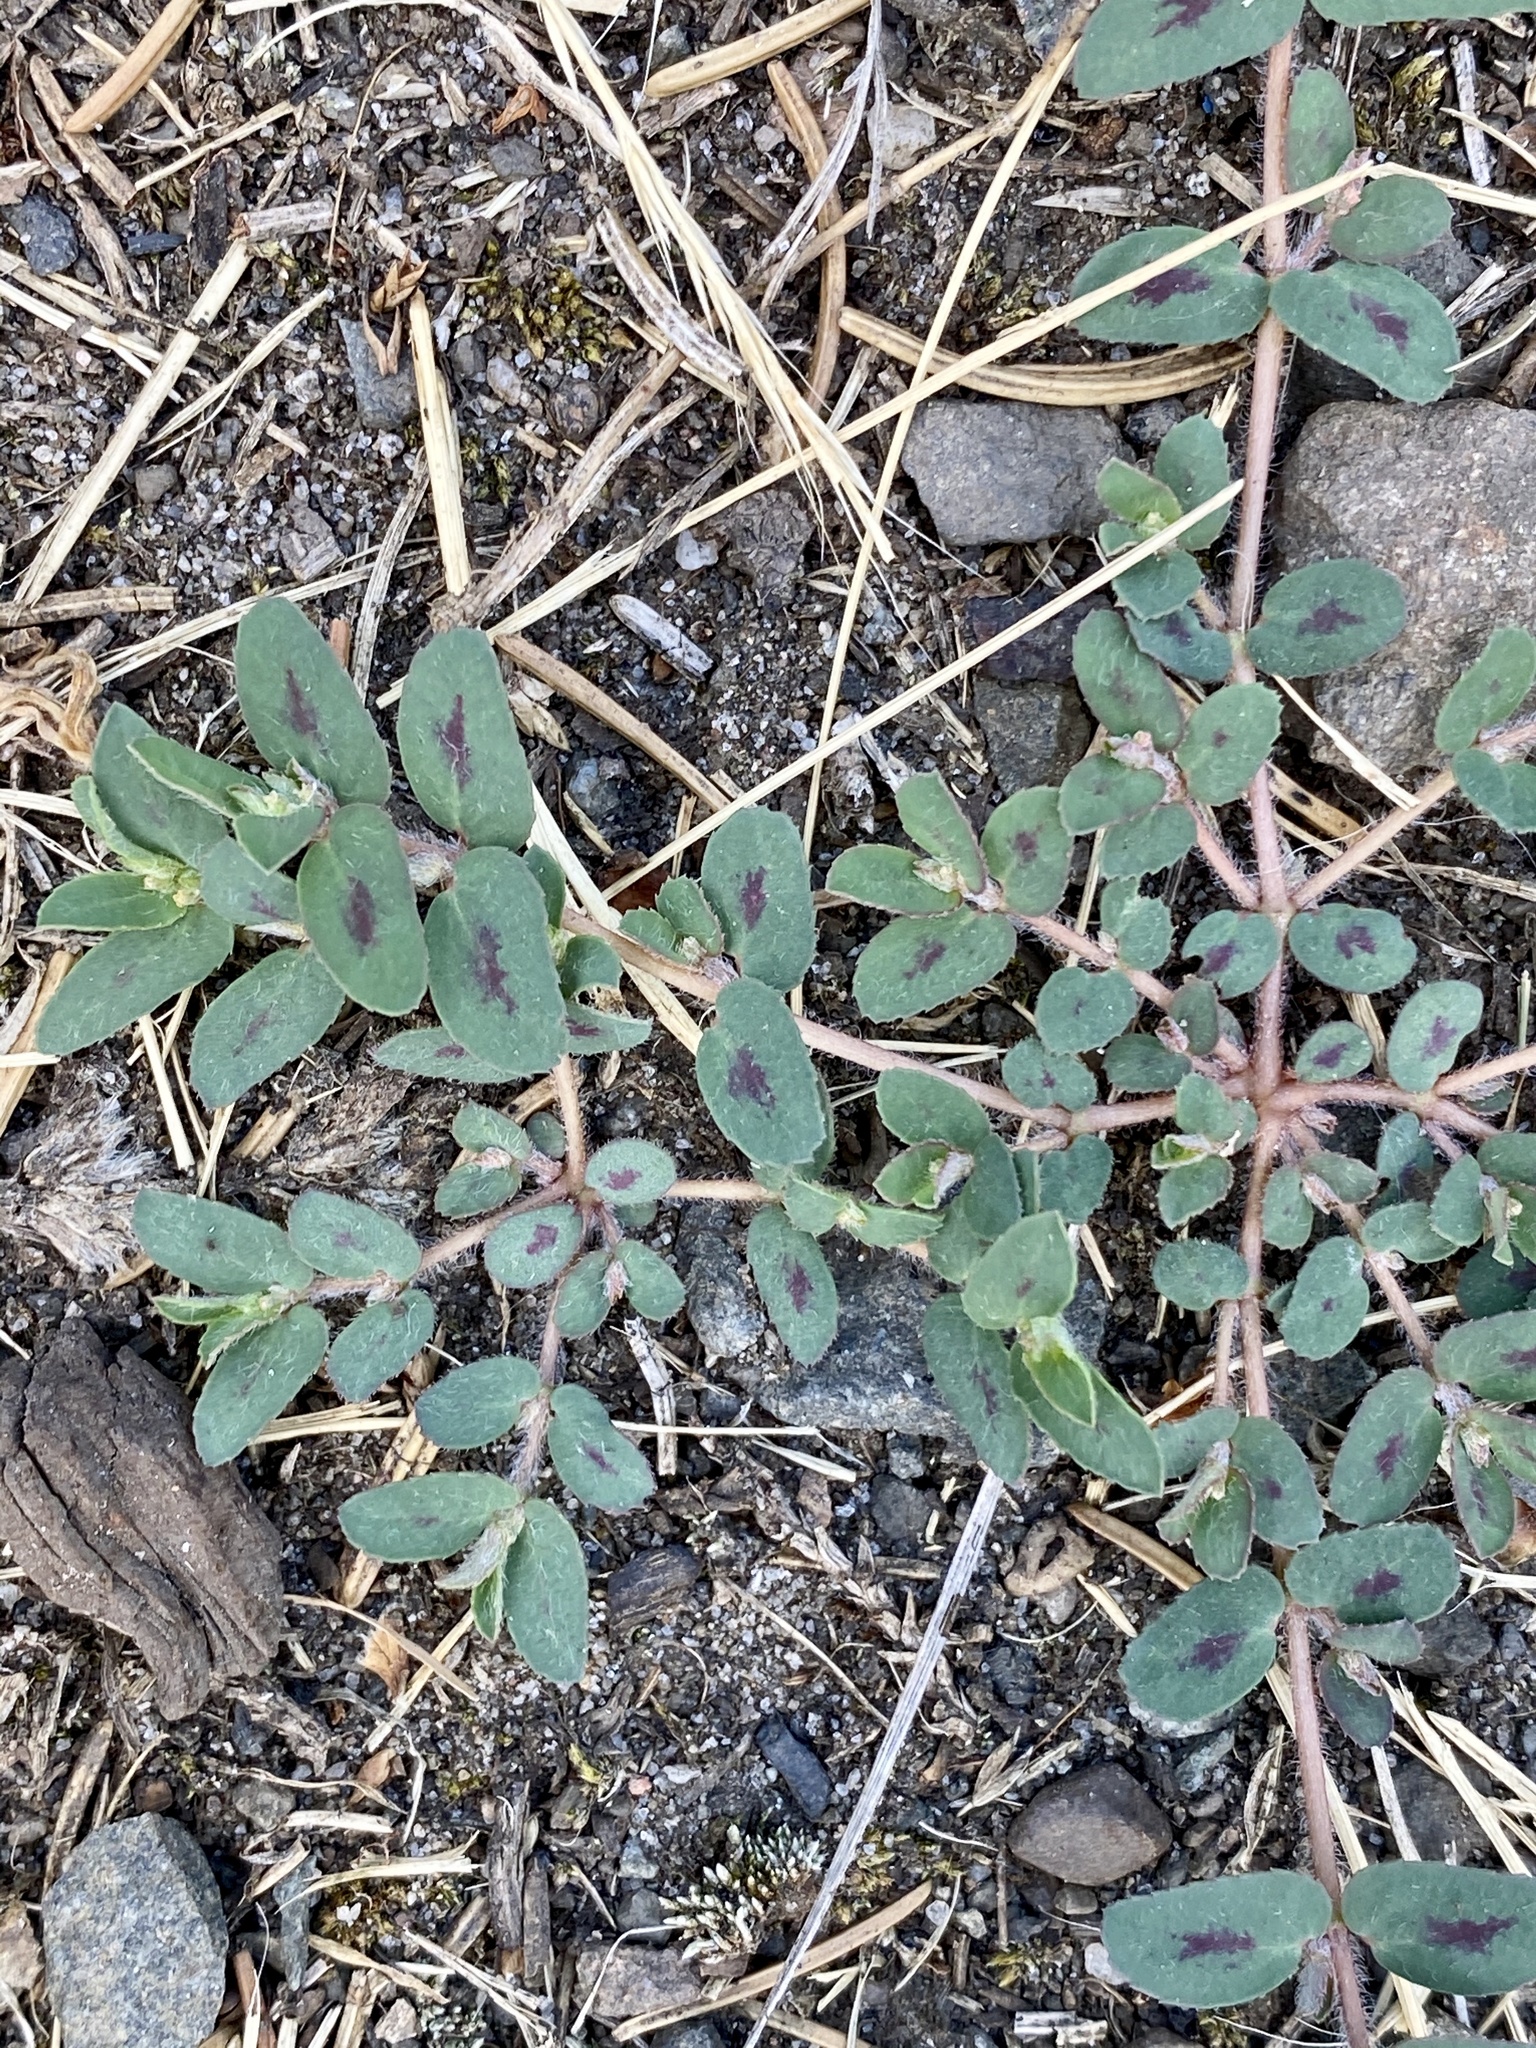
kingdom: Plantae
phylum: Tracheophyta
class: Magnoliopsida
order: Malpighiales
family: Euphorbiaceae
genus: Euphorbia
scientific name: Euphorbia maculata
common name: Spotted spurge
